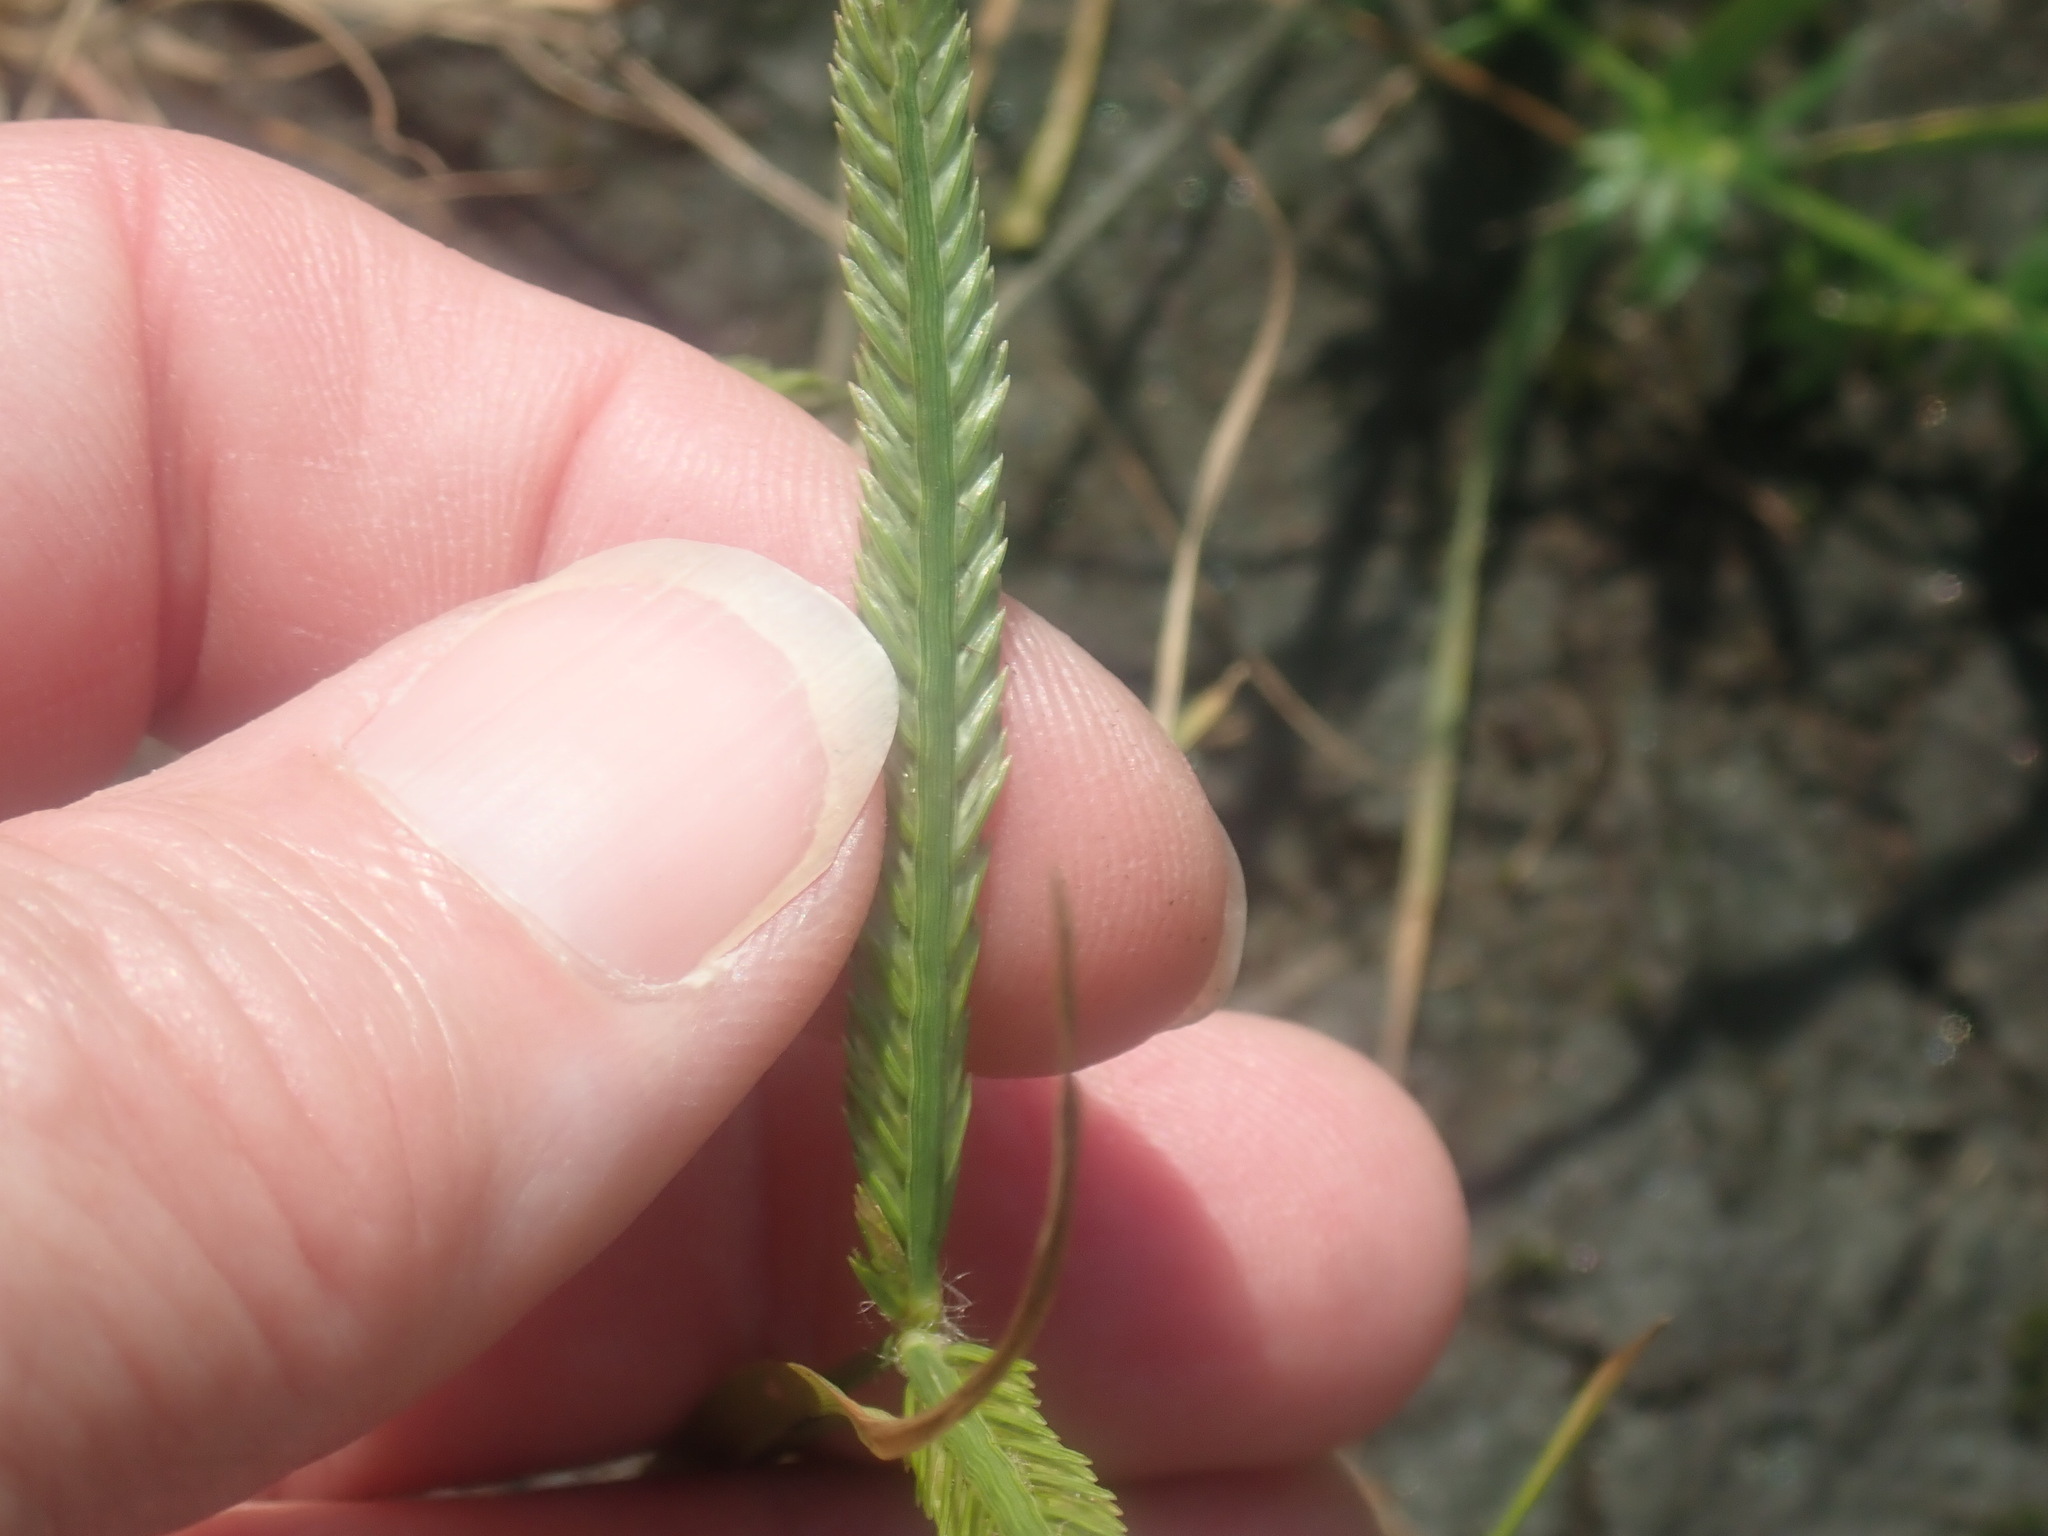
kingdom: Plantae
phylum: Tracheophyta
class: Liliopsida
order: Poales
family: Poaceae
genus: Eleusine
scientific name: Eleusine indica
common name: Yard-grass
